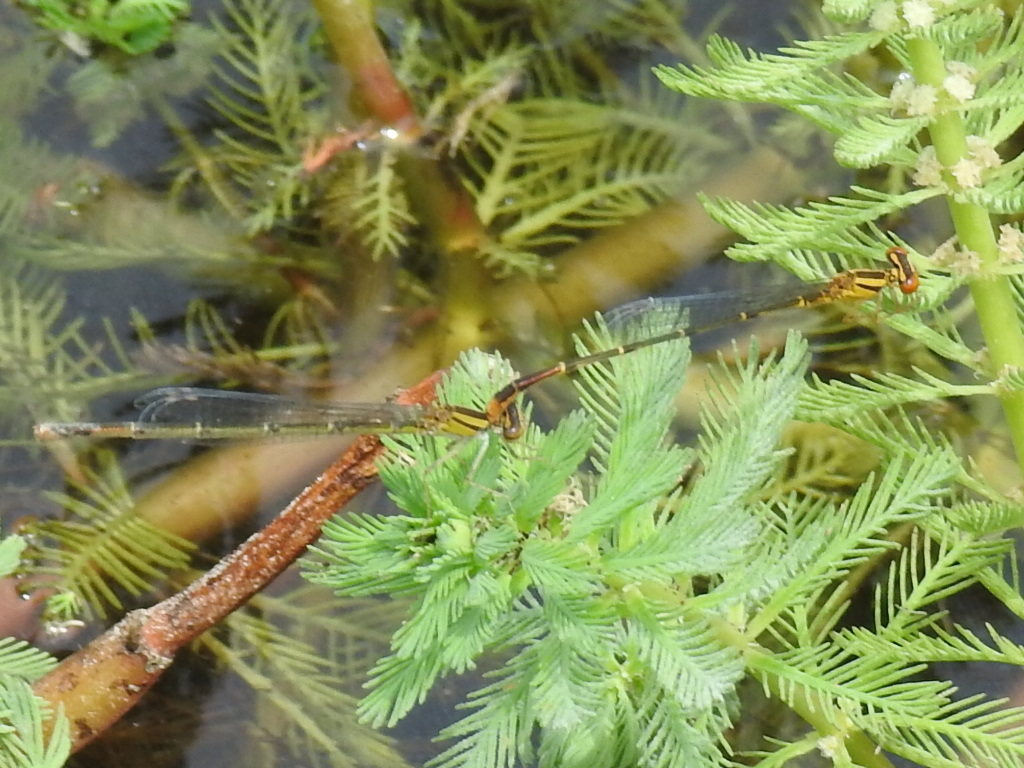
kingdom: Animalia
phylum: Arthropoda
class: Insecta
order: Odonata
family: Coenagrionidae
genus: Enallagma
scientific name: Enallagma signatum
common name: Orange bluet
